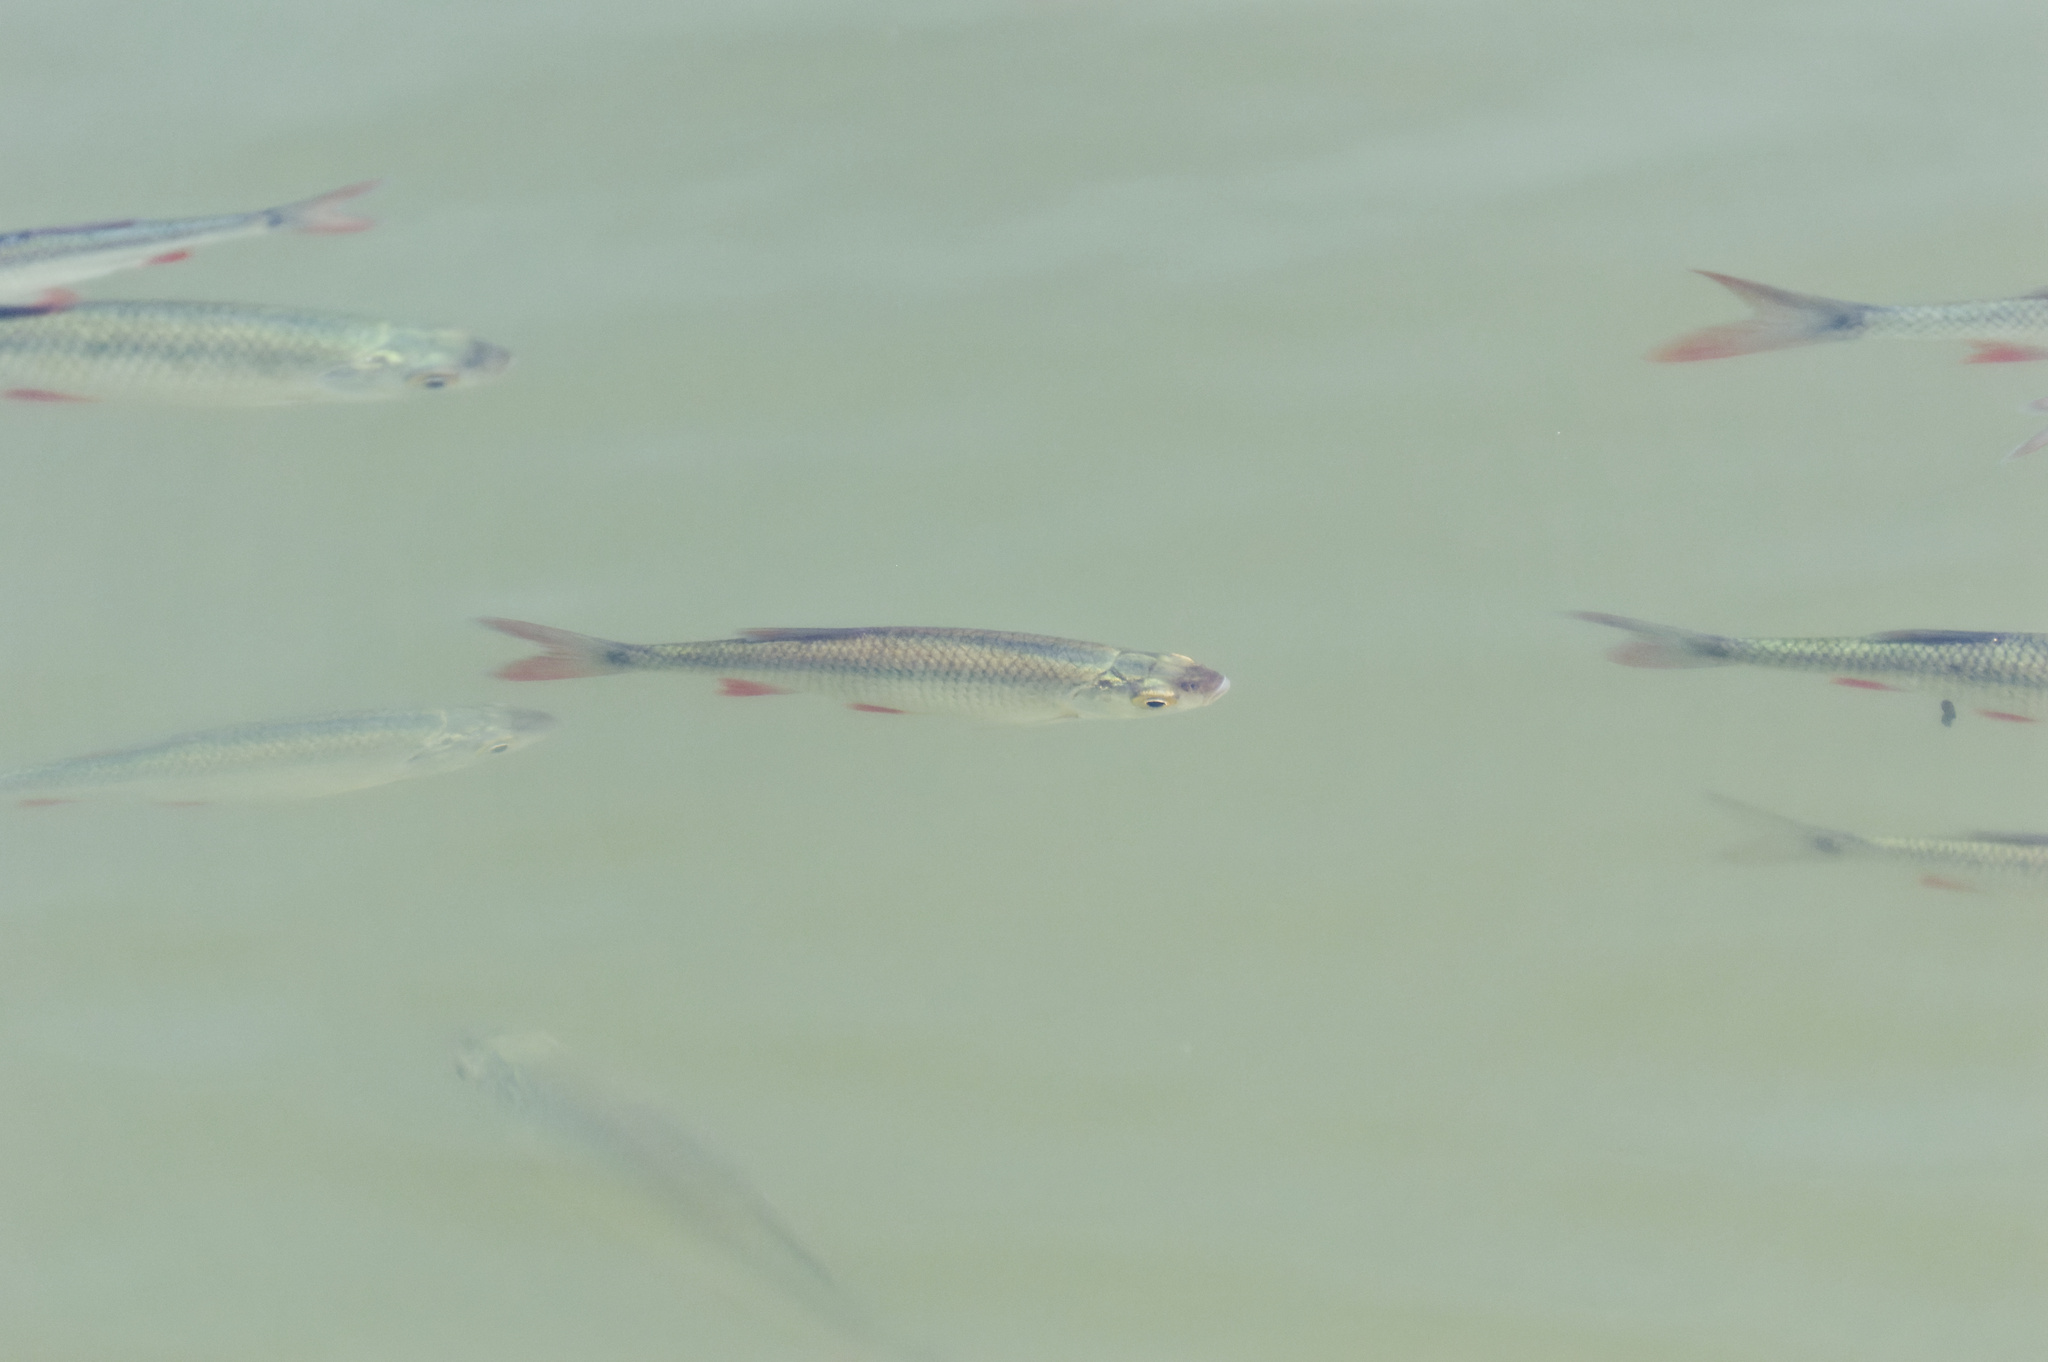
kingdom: Animalia
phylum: Chordata
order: Cypriniformes
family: Cyprinidae
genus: Scardinius
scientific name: Scardinius erythrophthalmus
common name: Rudd
